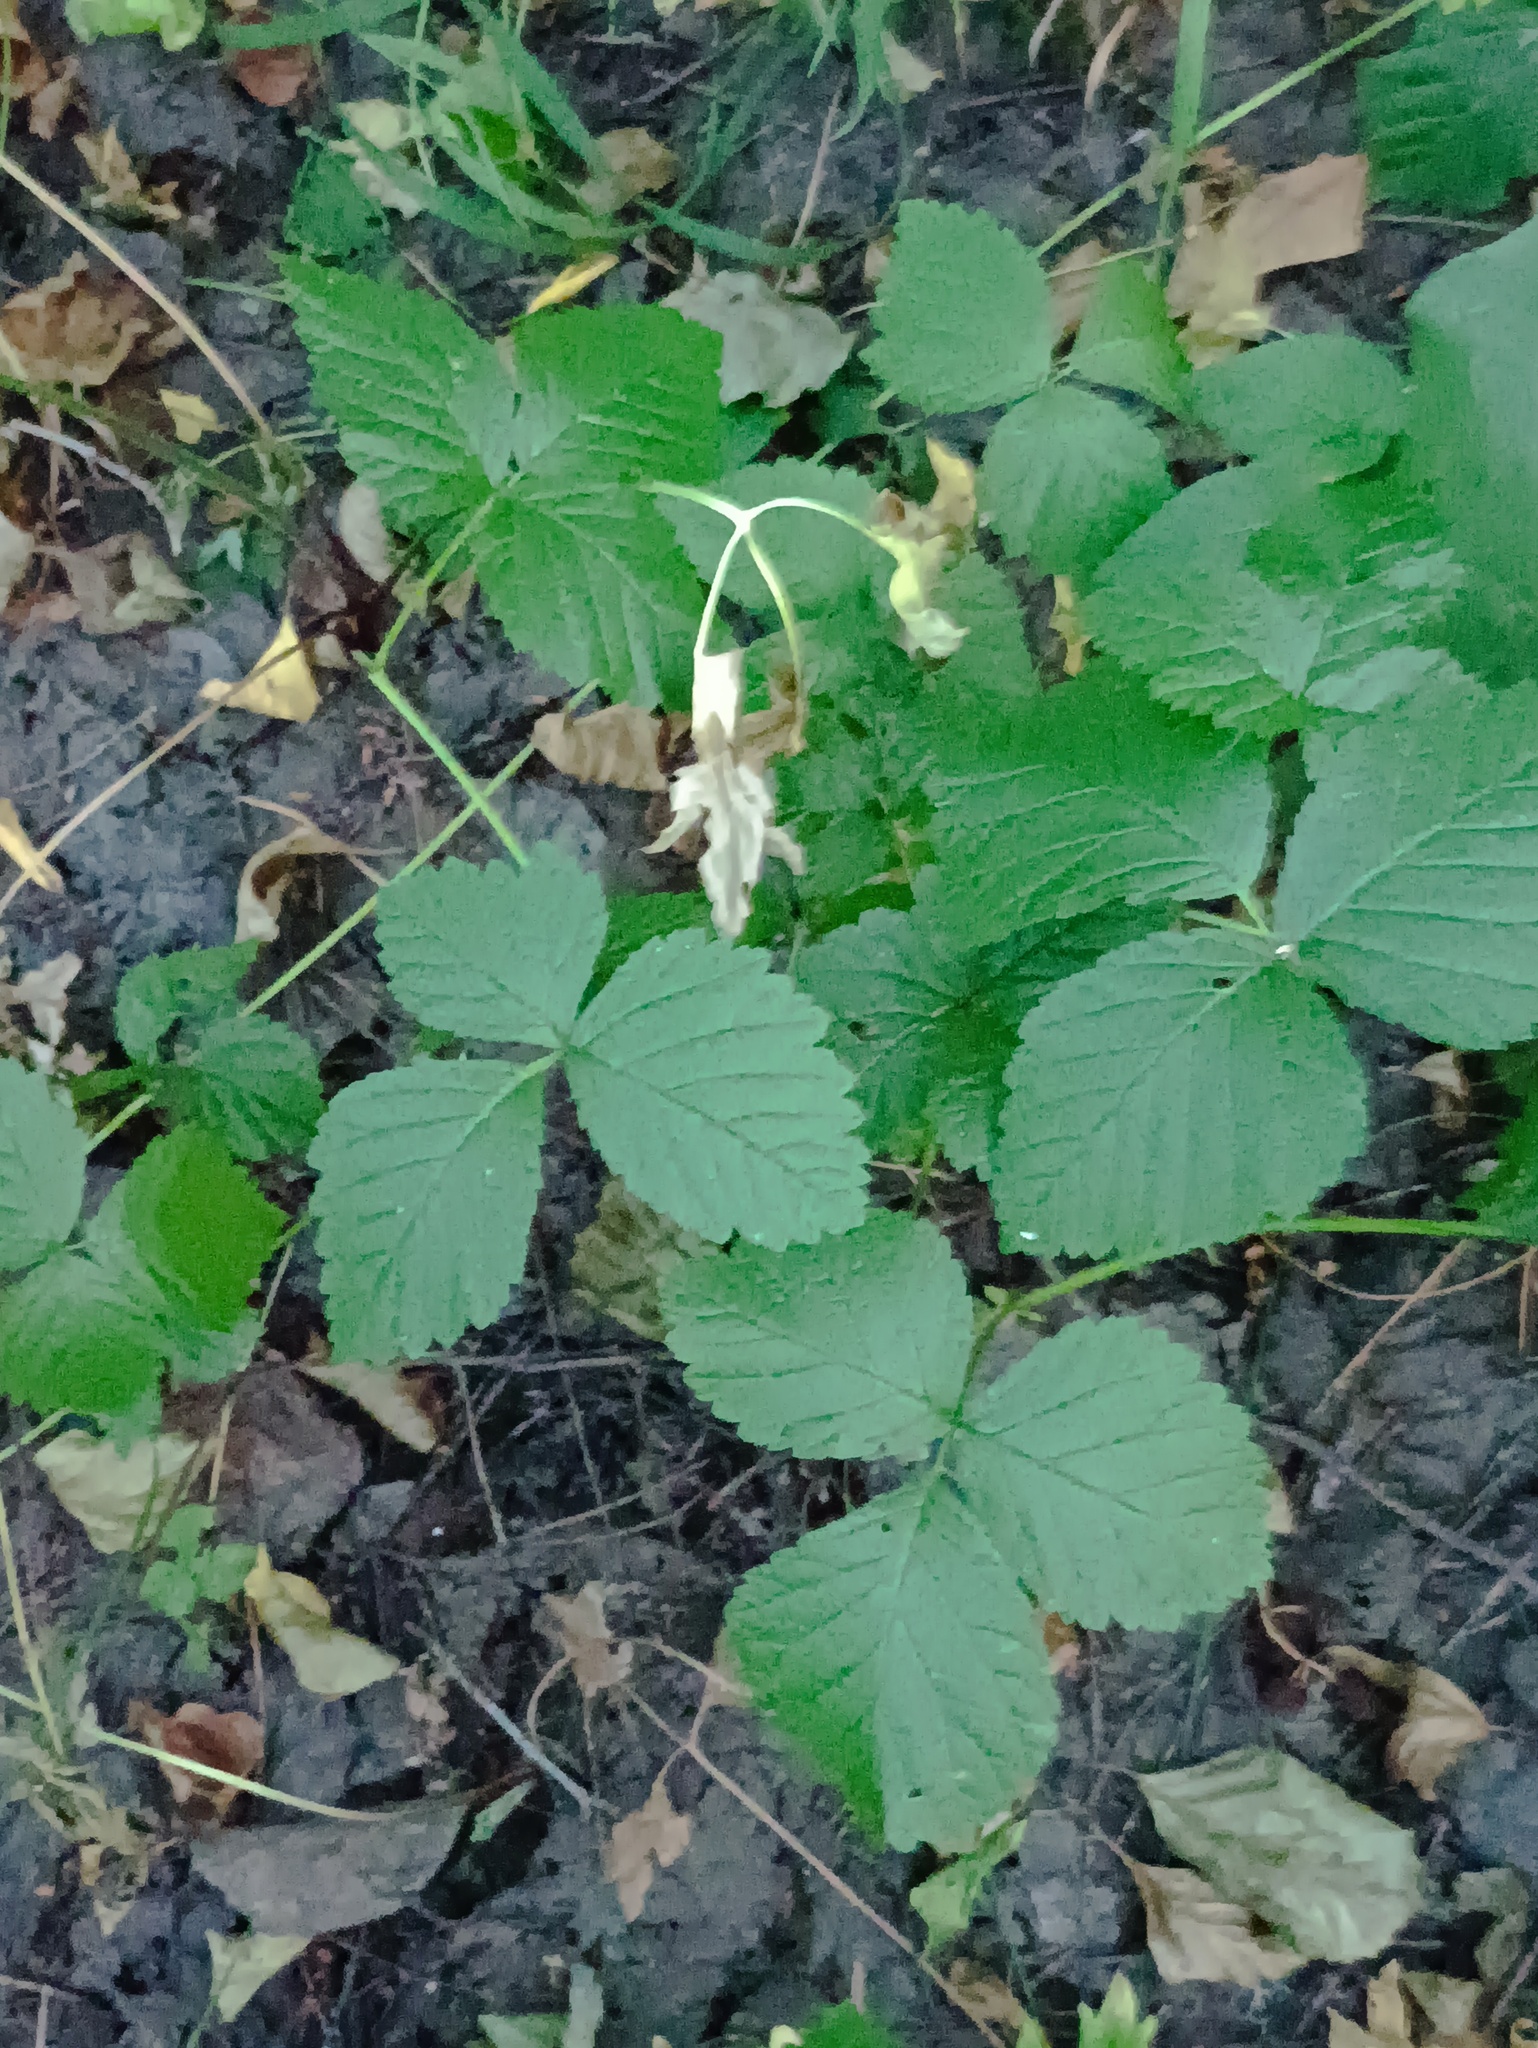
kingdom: Plantae
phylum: Tracheophyta
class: Magnoliopsida
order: Rosales
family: Rosaceae
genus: Rubus
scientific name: Rubus caesius
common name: Dewberry
